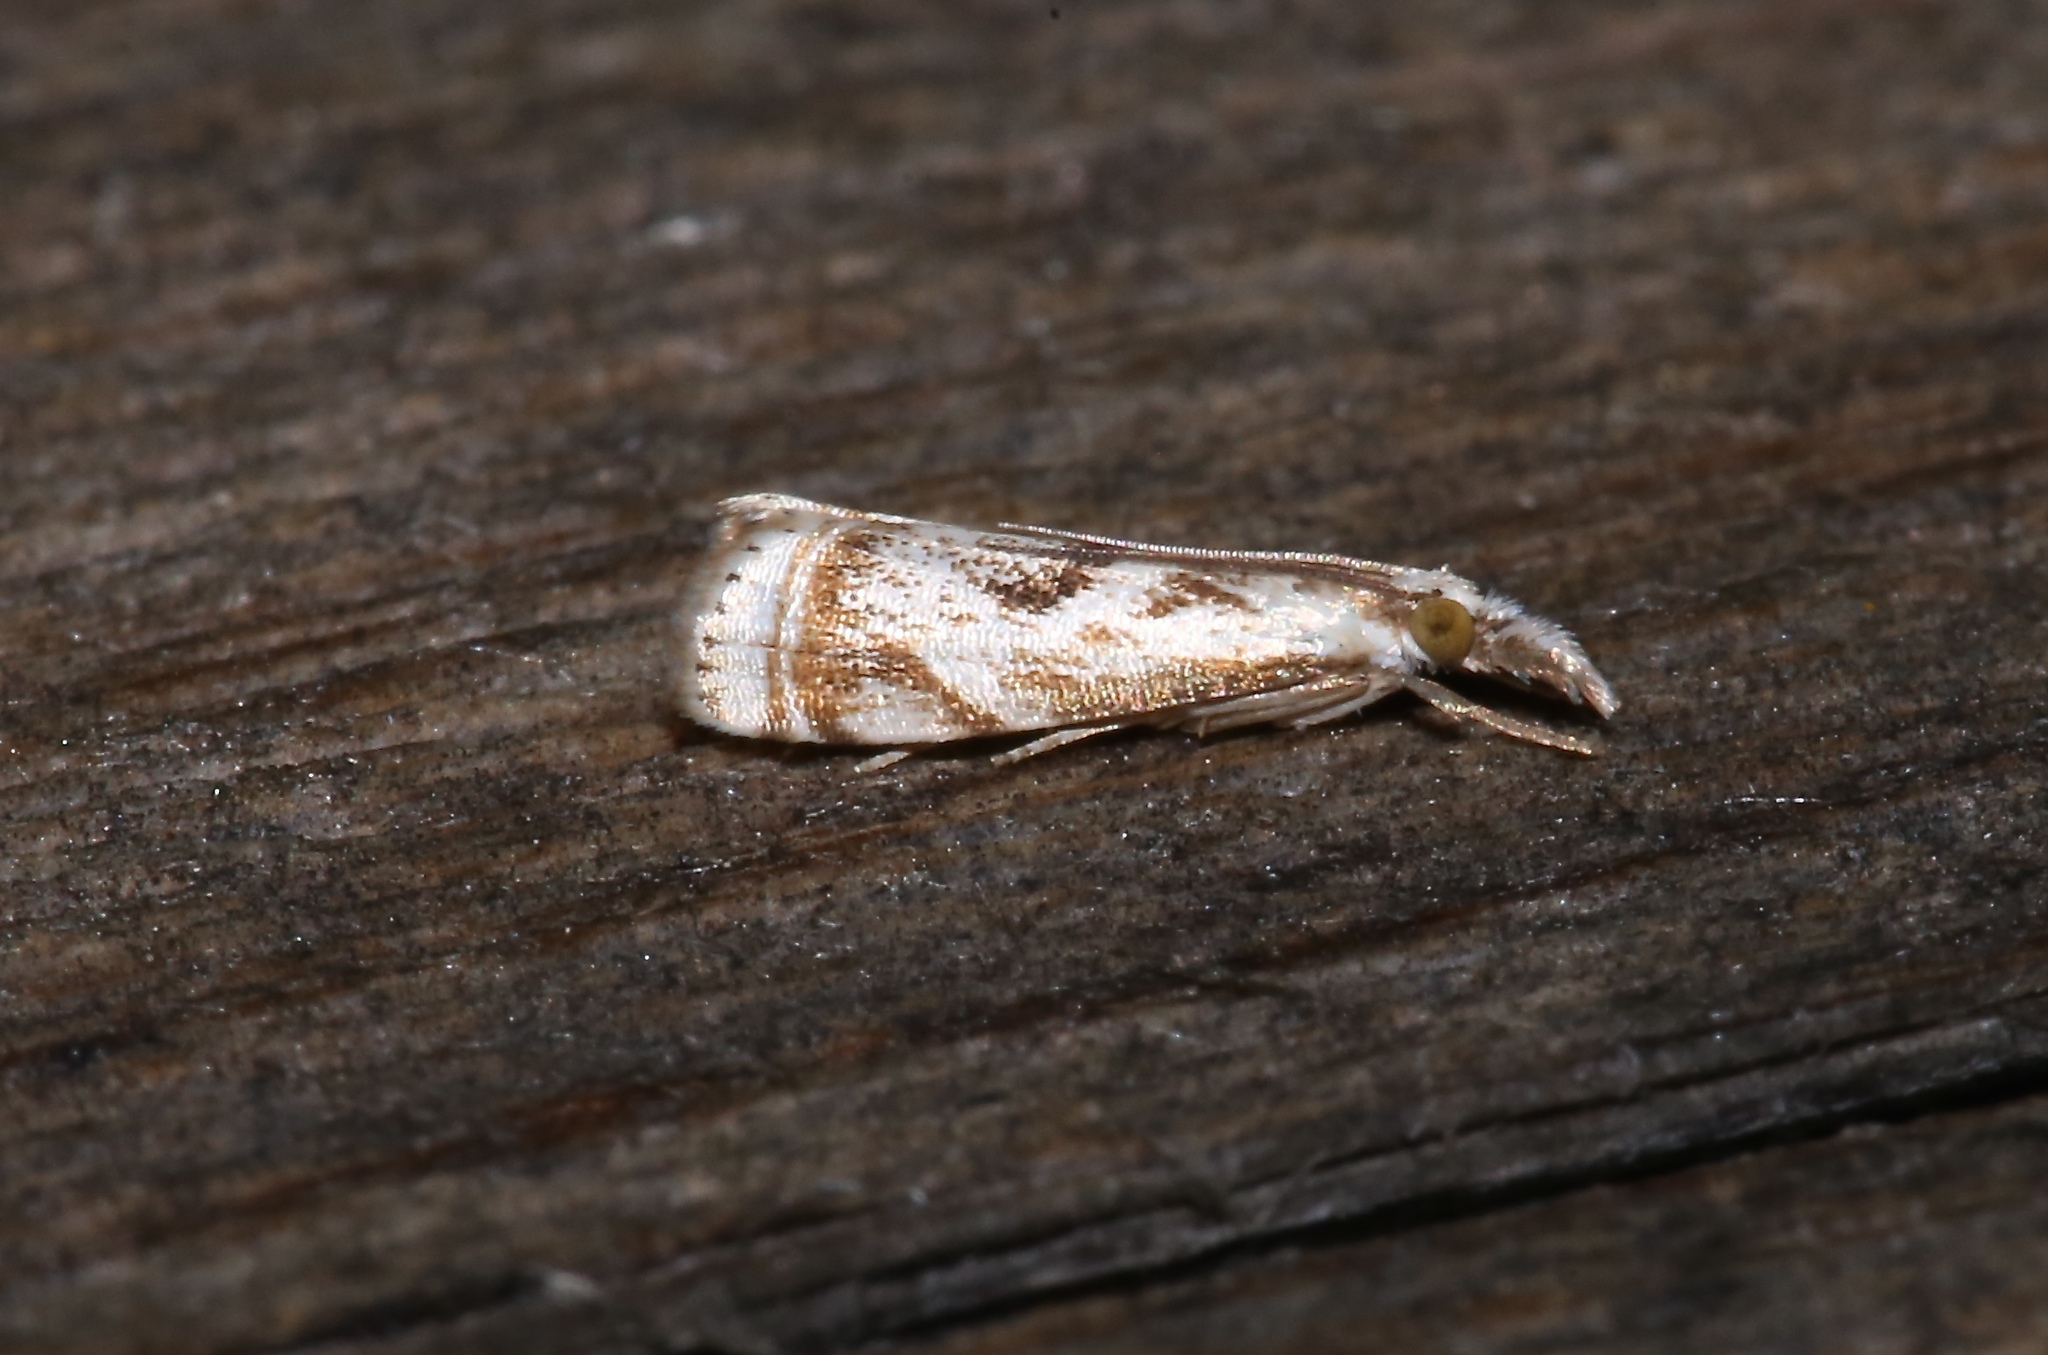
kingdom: Animalia
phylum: Arthropoda
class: Insecta
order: Lepidoptera
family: Crambidae
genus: Microcrambus
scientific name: Microcrambus elegans
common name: Elegant grass-veneer
